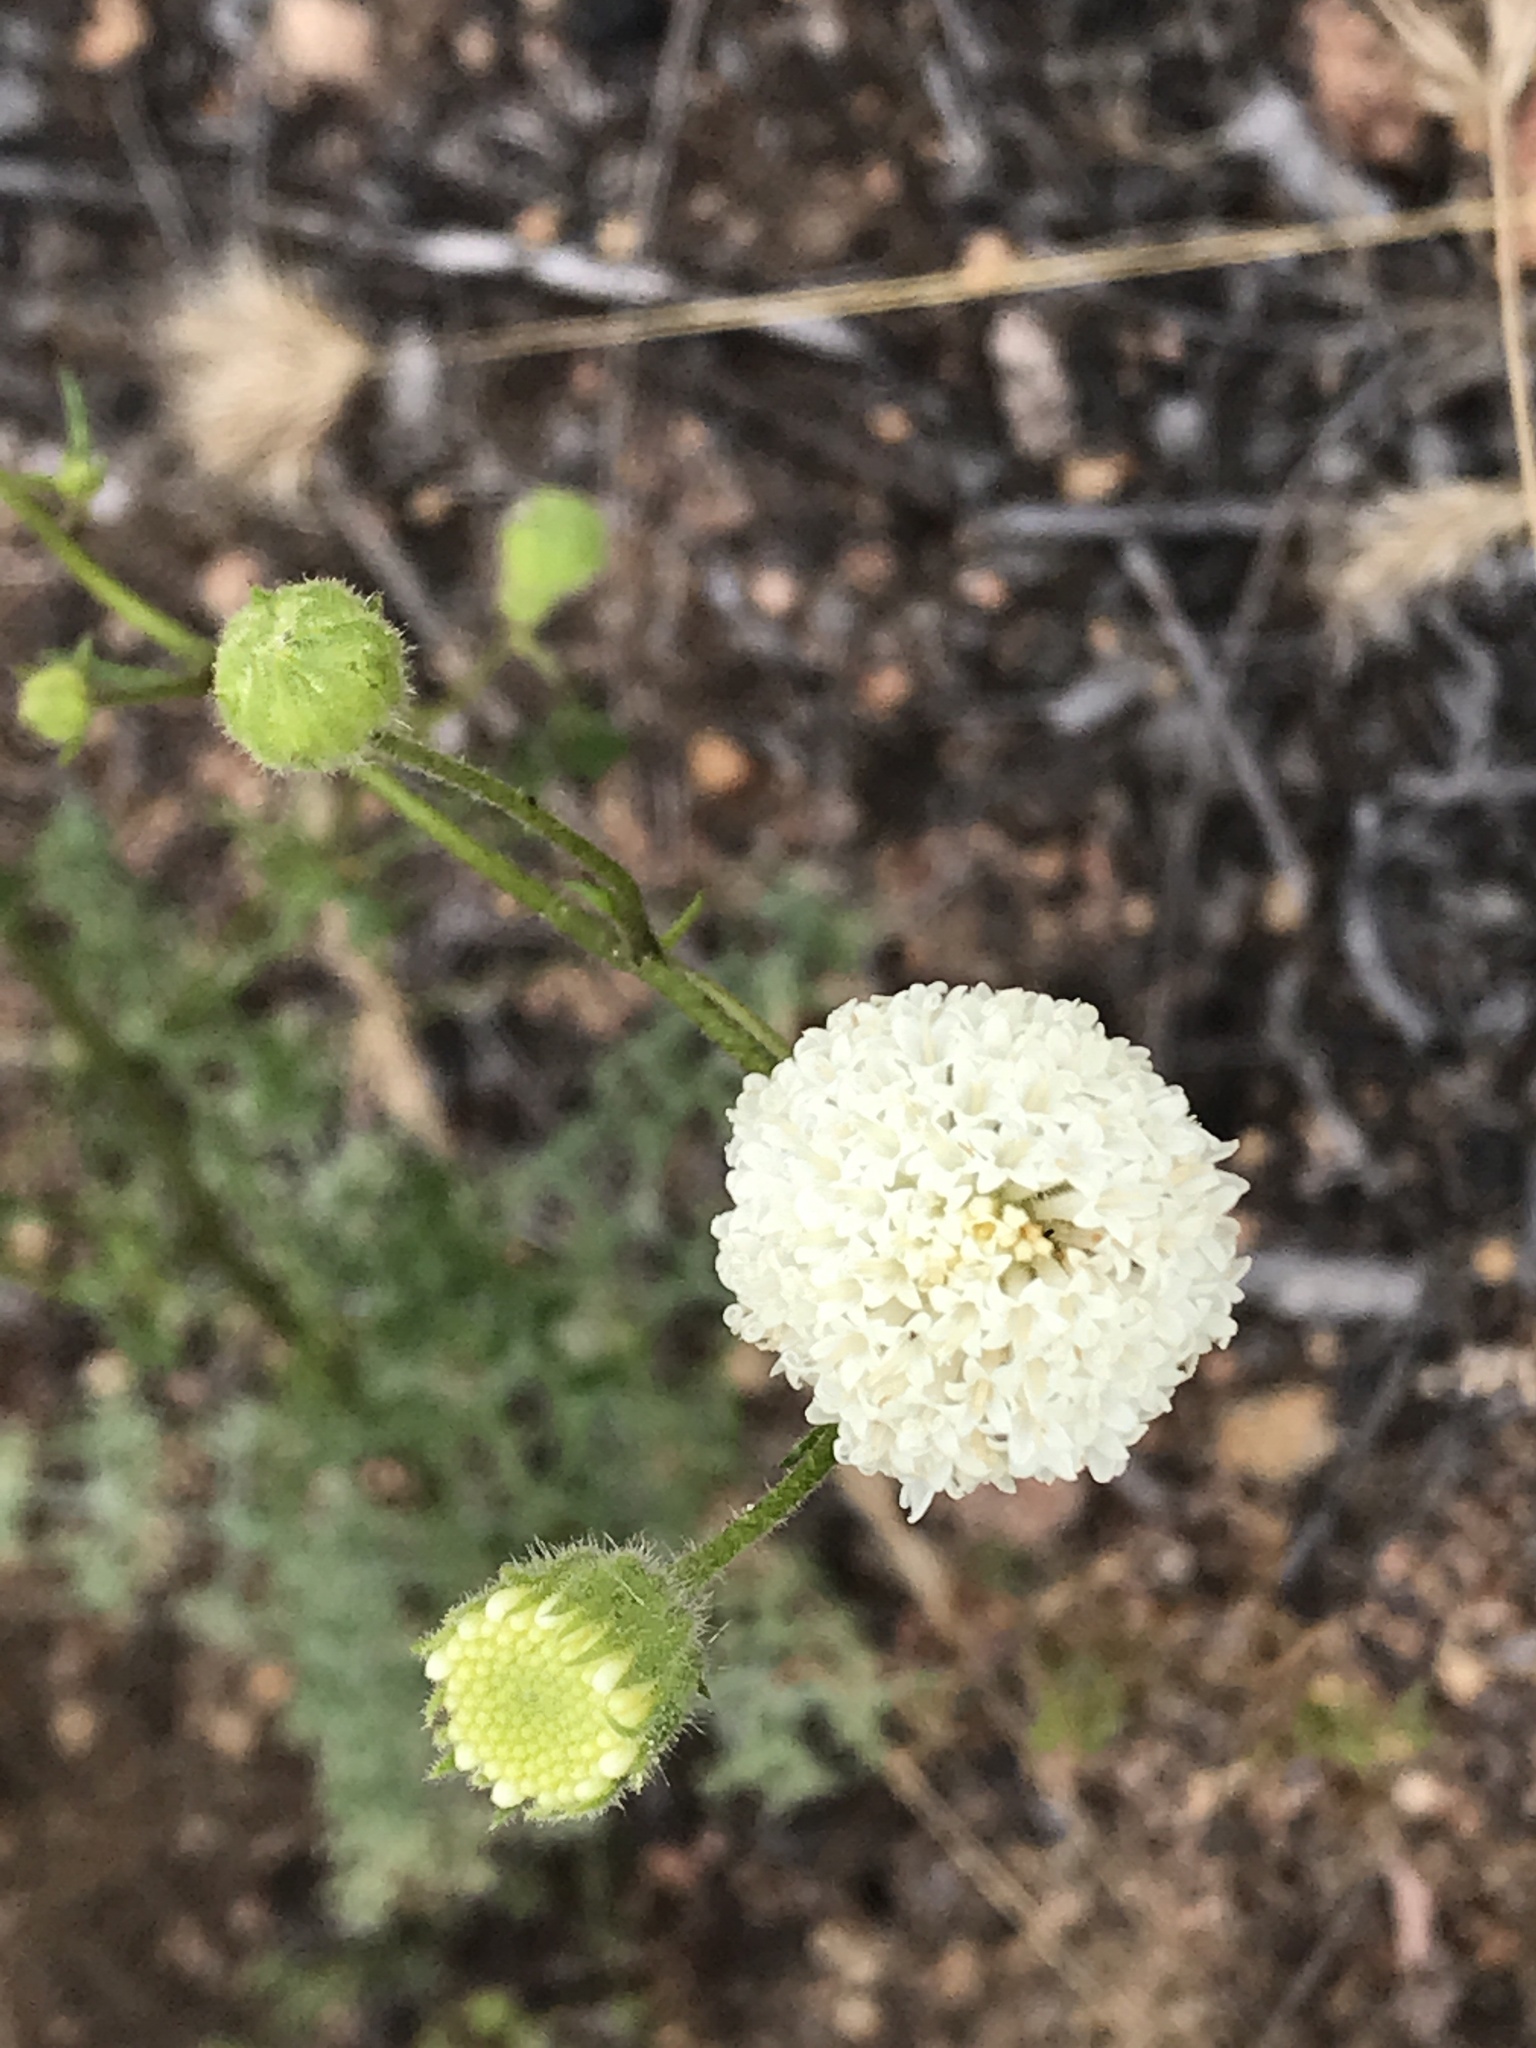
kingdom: Plantae
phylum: Tracheophyta
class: Magnoliopsida
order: Asterales
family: Asteraceae
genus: Chaenactis
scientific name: Chaenactis artemisiifolia
